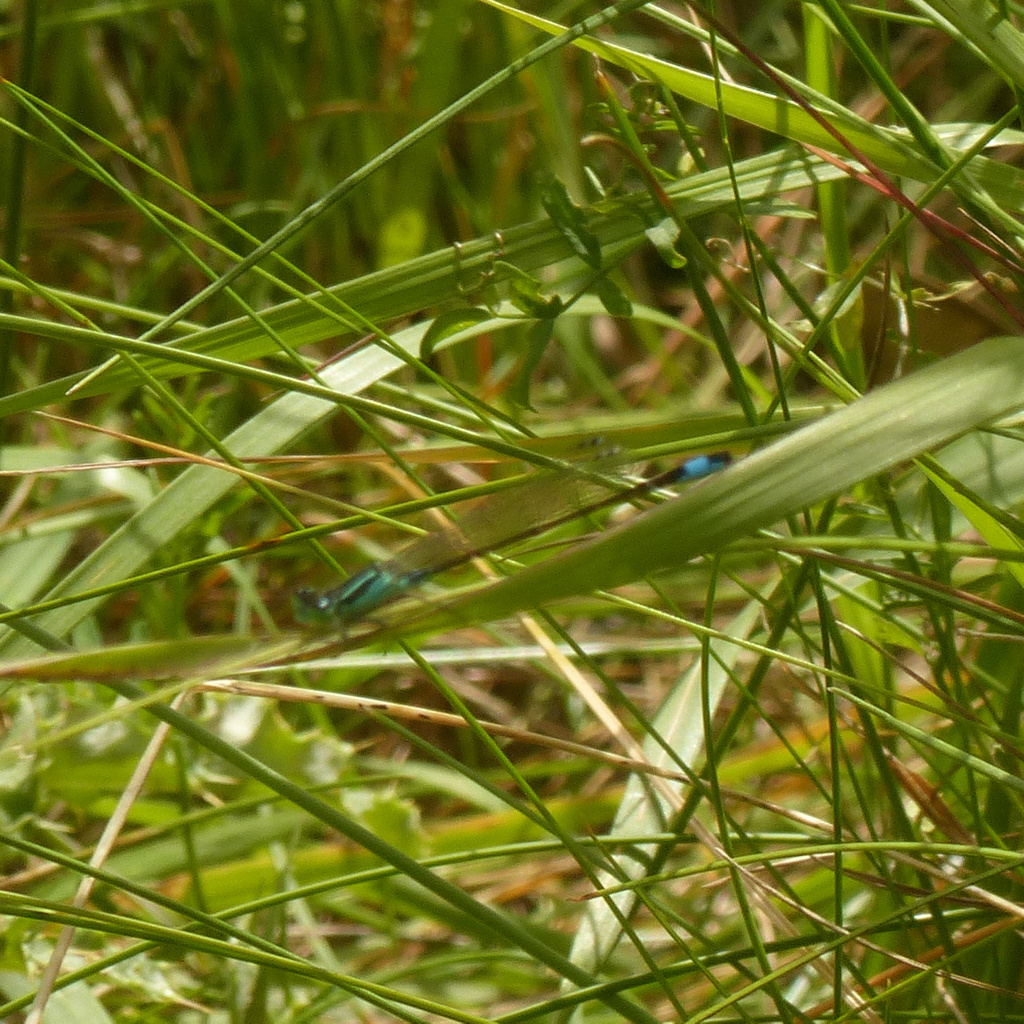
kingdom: Animalia
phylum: Arthropoda
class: Insecta
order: Odonata
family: Coenagrionidae
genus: Ischnura
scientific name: Ischnura elegans
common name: Blue-tailed damselfly
